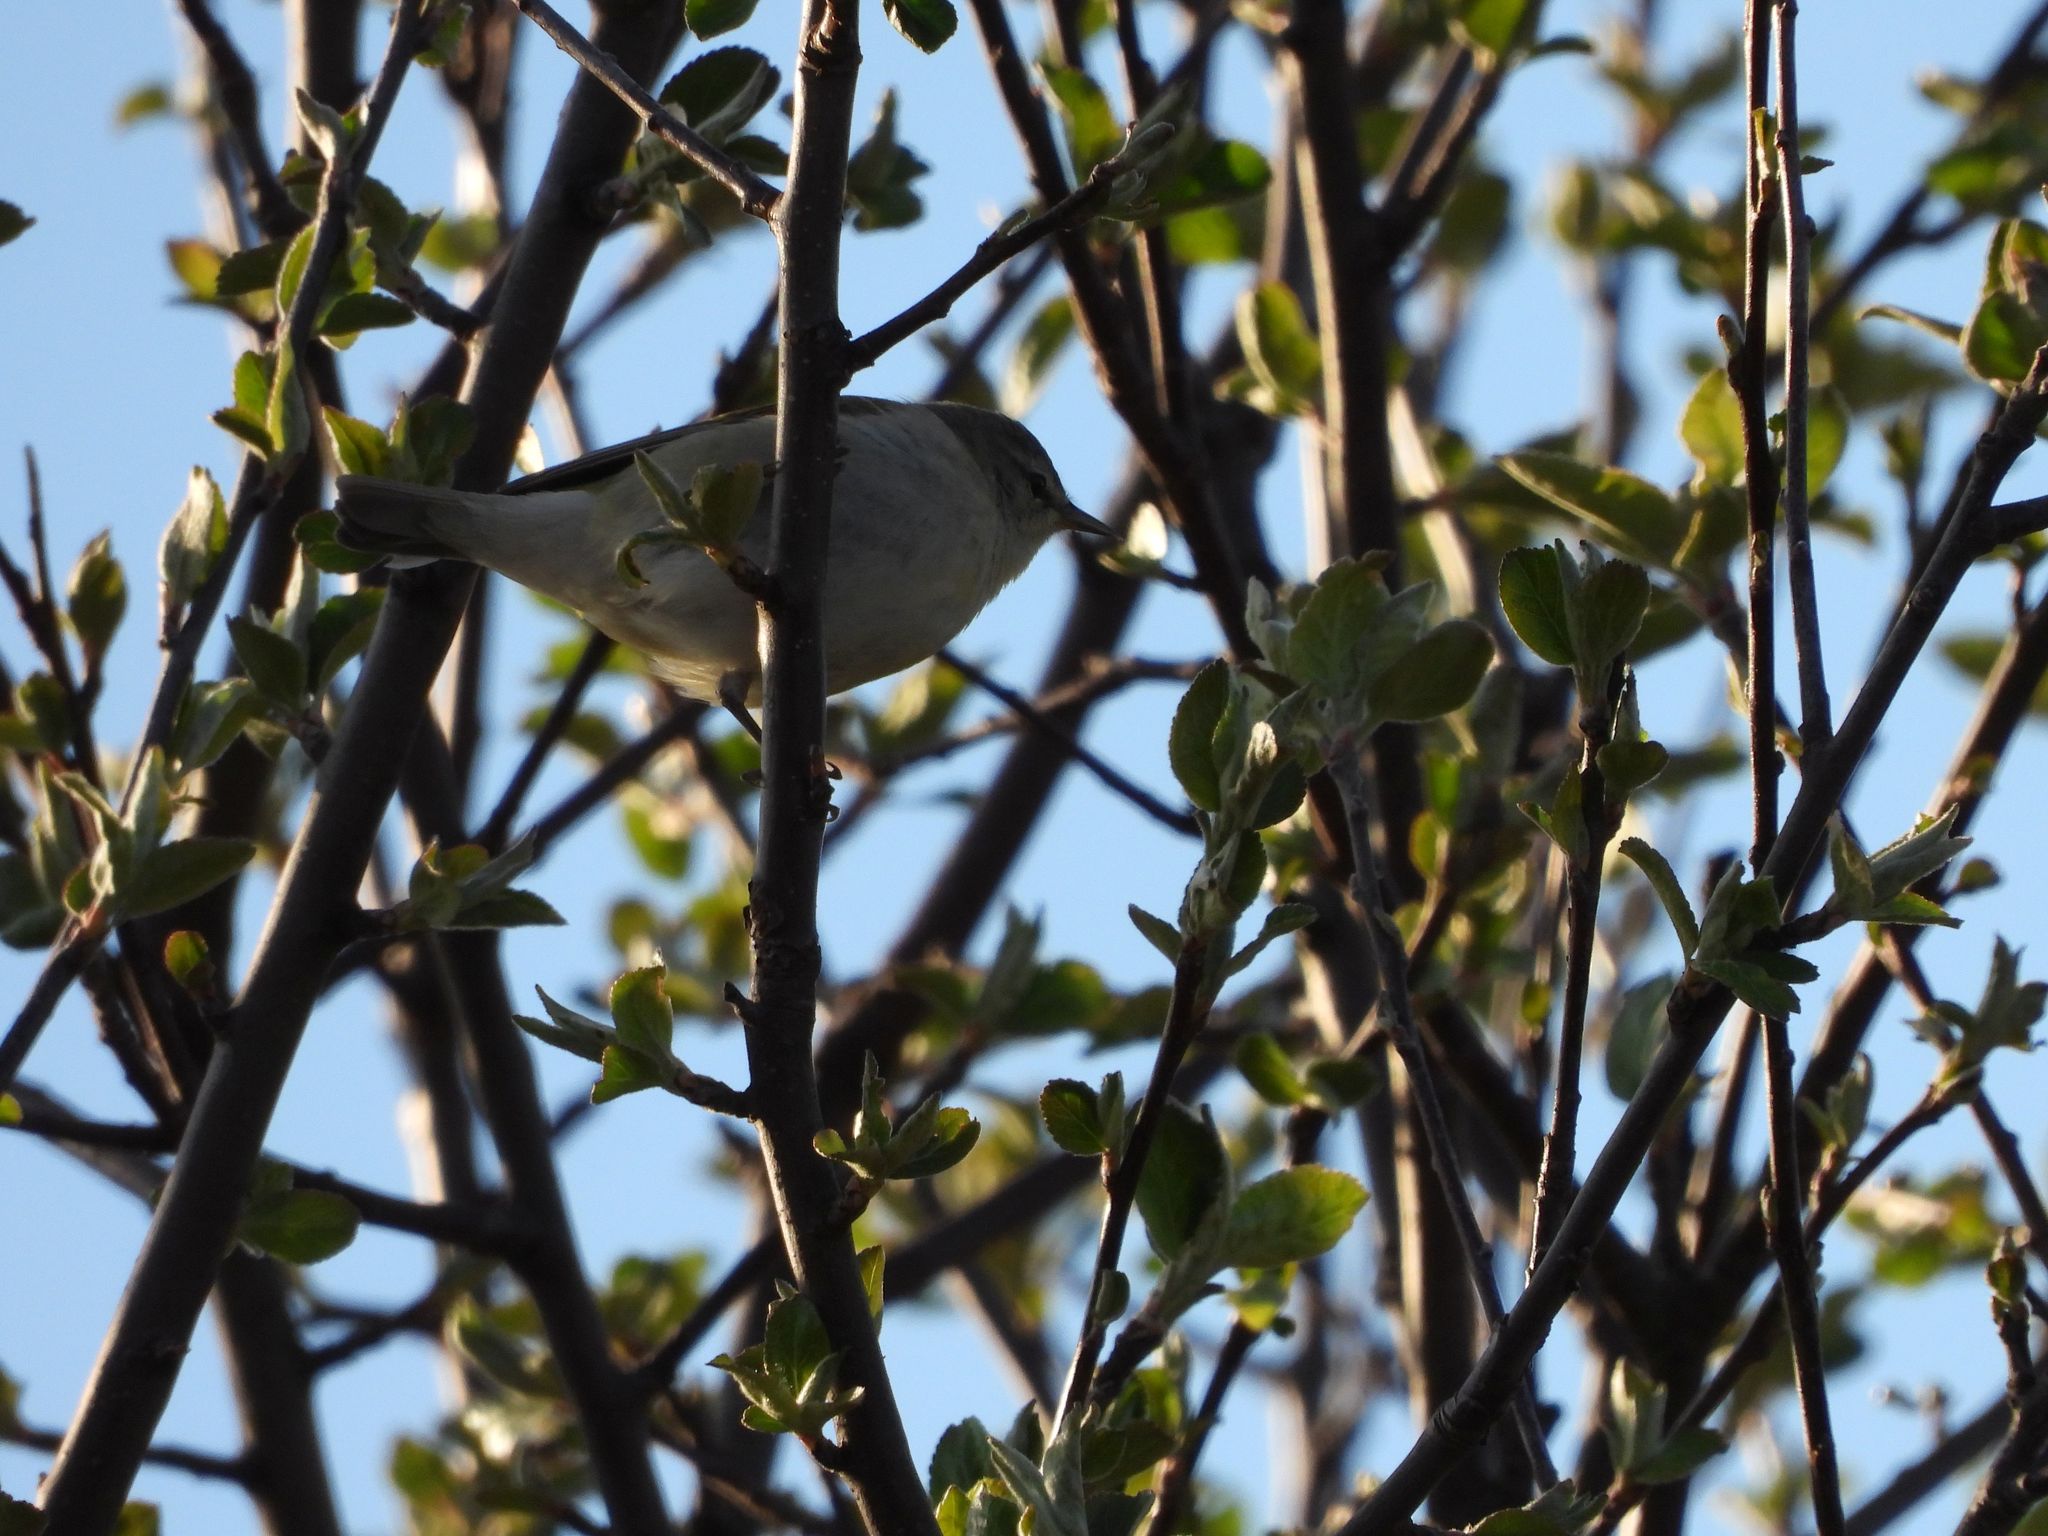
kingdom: Animalia
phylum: Chordata
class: Aves
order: Passeriformes
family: Parulidae
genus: Leiothlypis
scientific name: Leiothlypis peregrina
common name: Tennessee warbler
